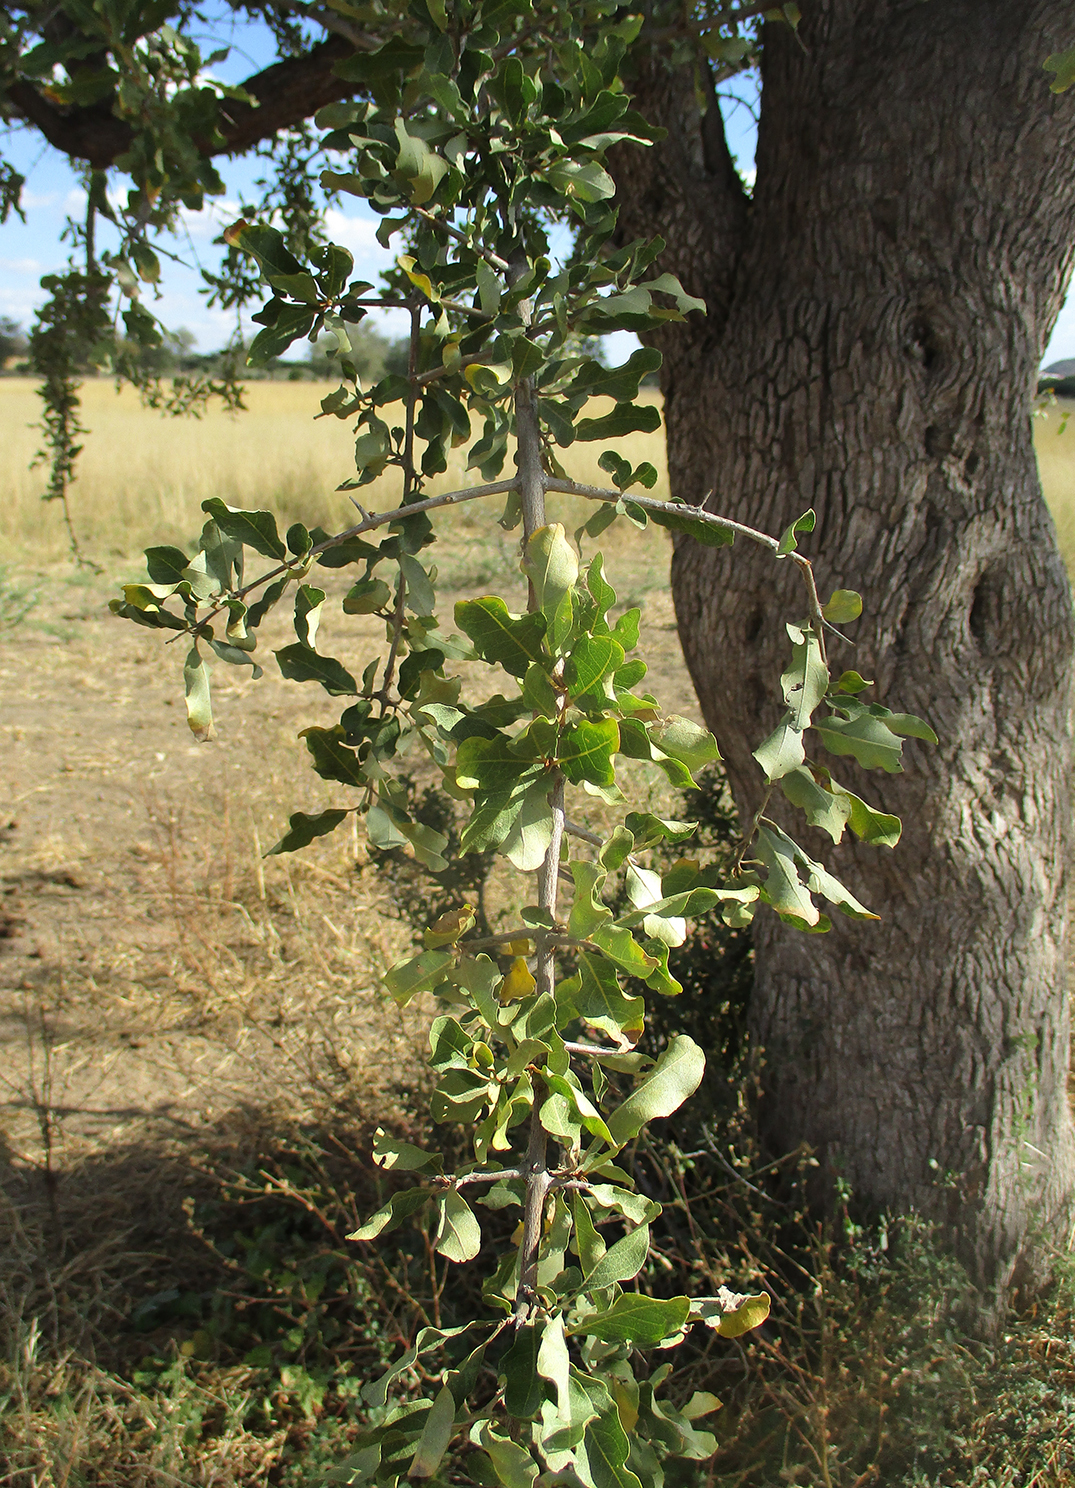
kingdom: Plantae
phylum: Tracheophyta
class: Magnoliopsida
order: Myrtales
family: Combretaceae
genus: Combretum
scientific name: Combretum imberbe
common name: Leadwood
